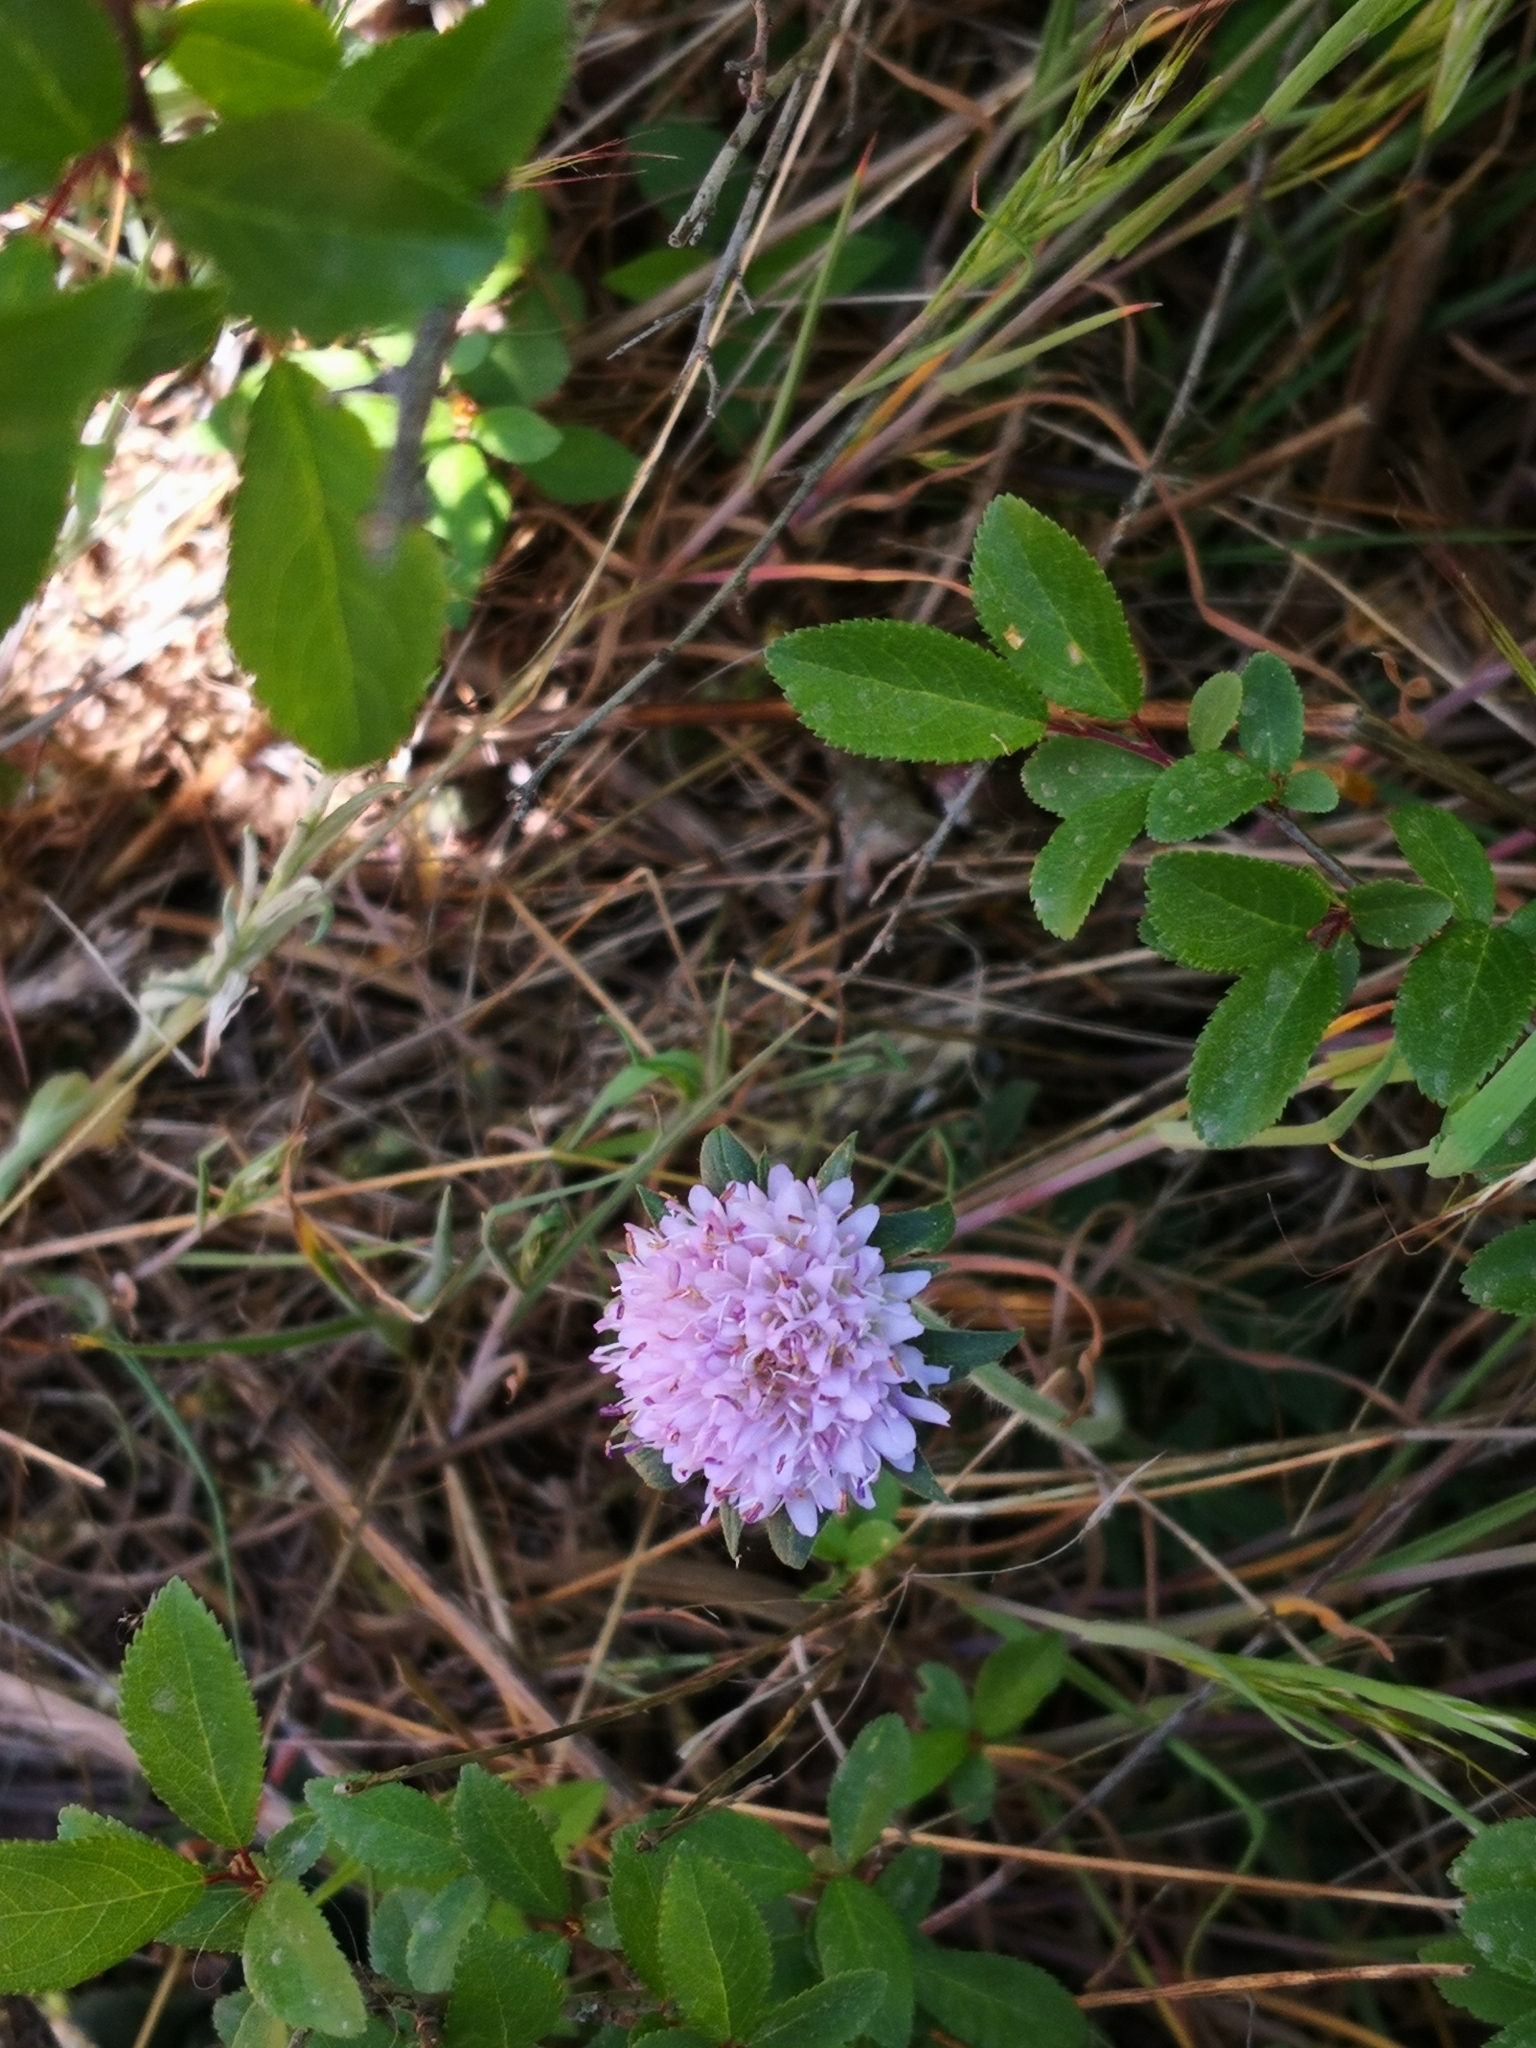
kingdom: Plantae
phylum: Tracheophyta
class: Magnoliopsida
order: Dipsacales
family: Caprifoliaceae
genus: Knautia
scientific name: Knautia arvensis
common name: Field scabiosa
